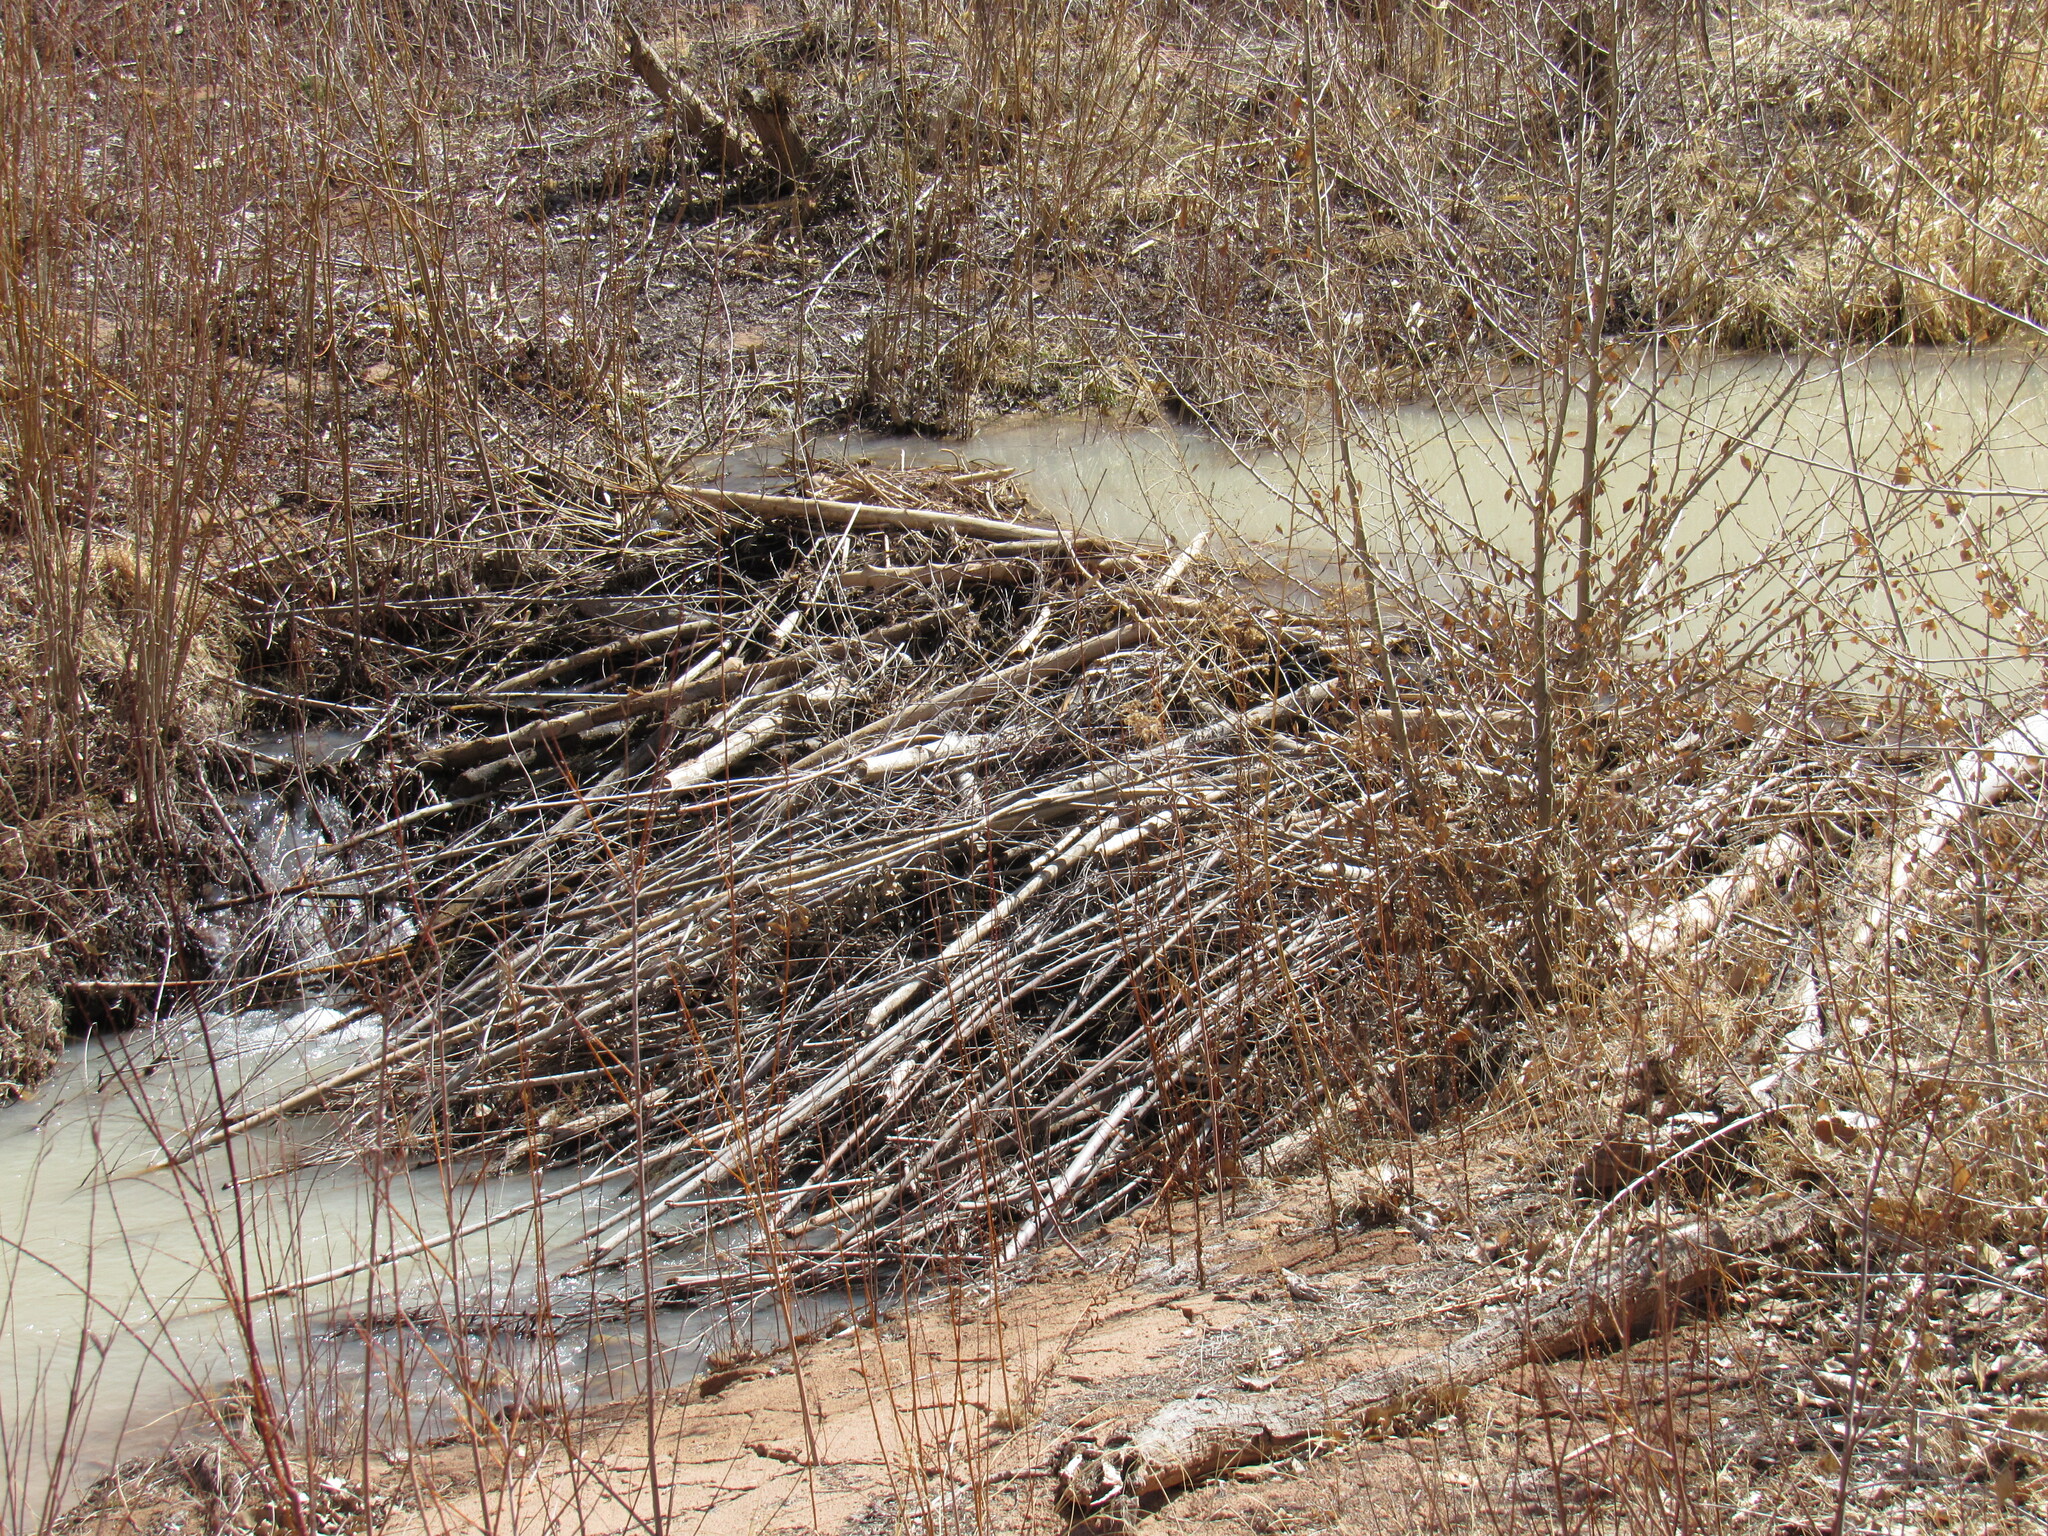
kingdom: Animalia
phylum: Chordata
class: Mammalia
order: Rodentia
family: Castoridae
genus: Castor
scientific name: Castor canadensis
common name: American beaver
